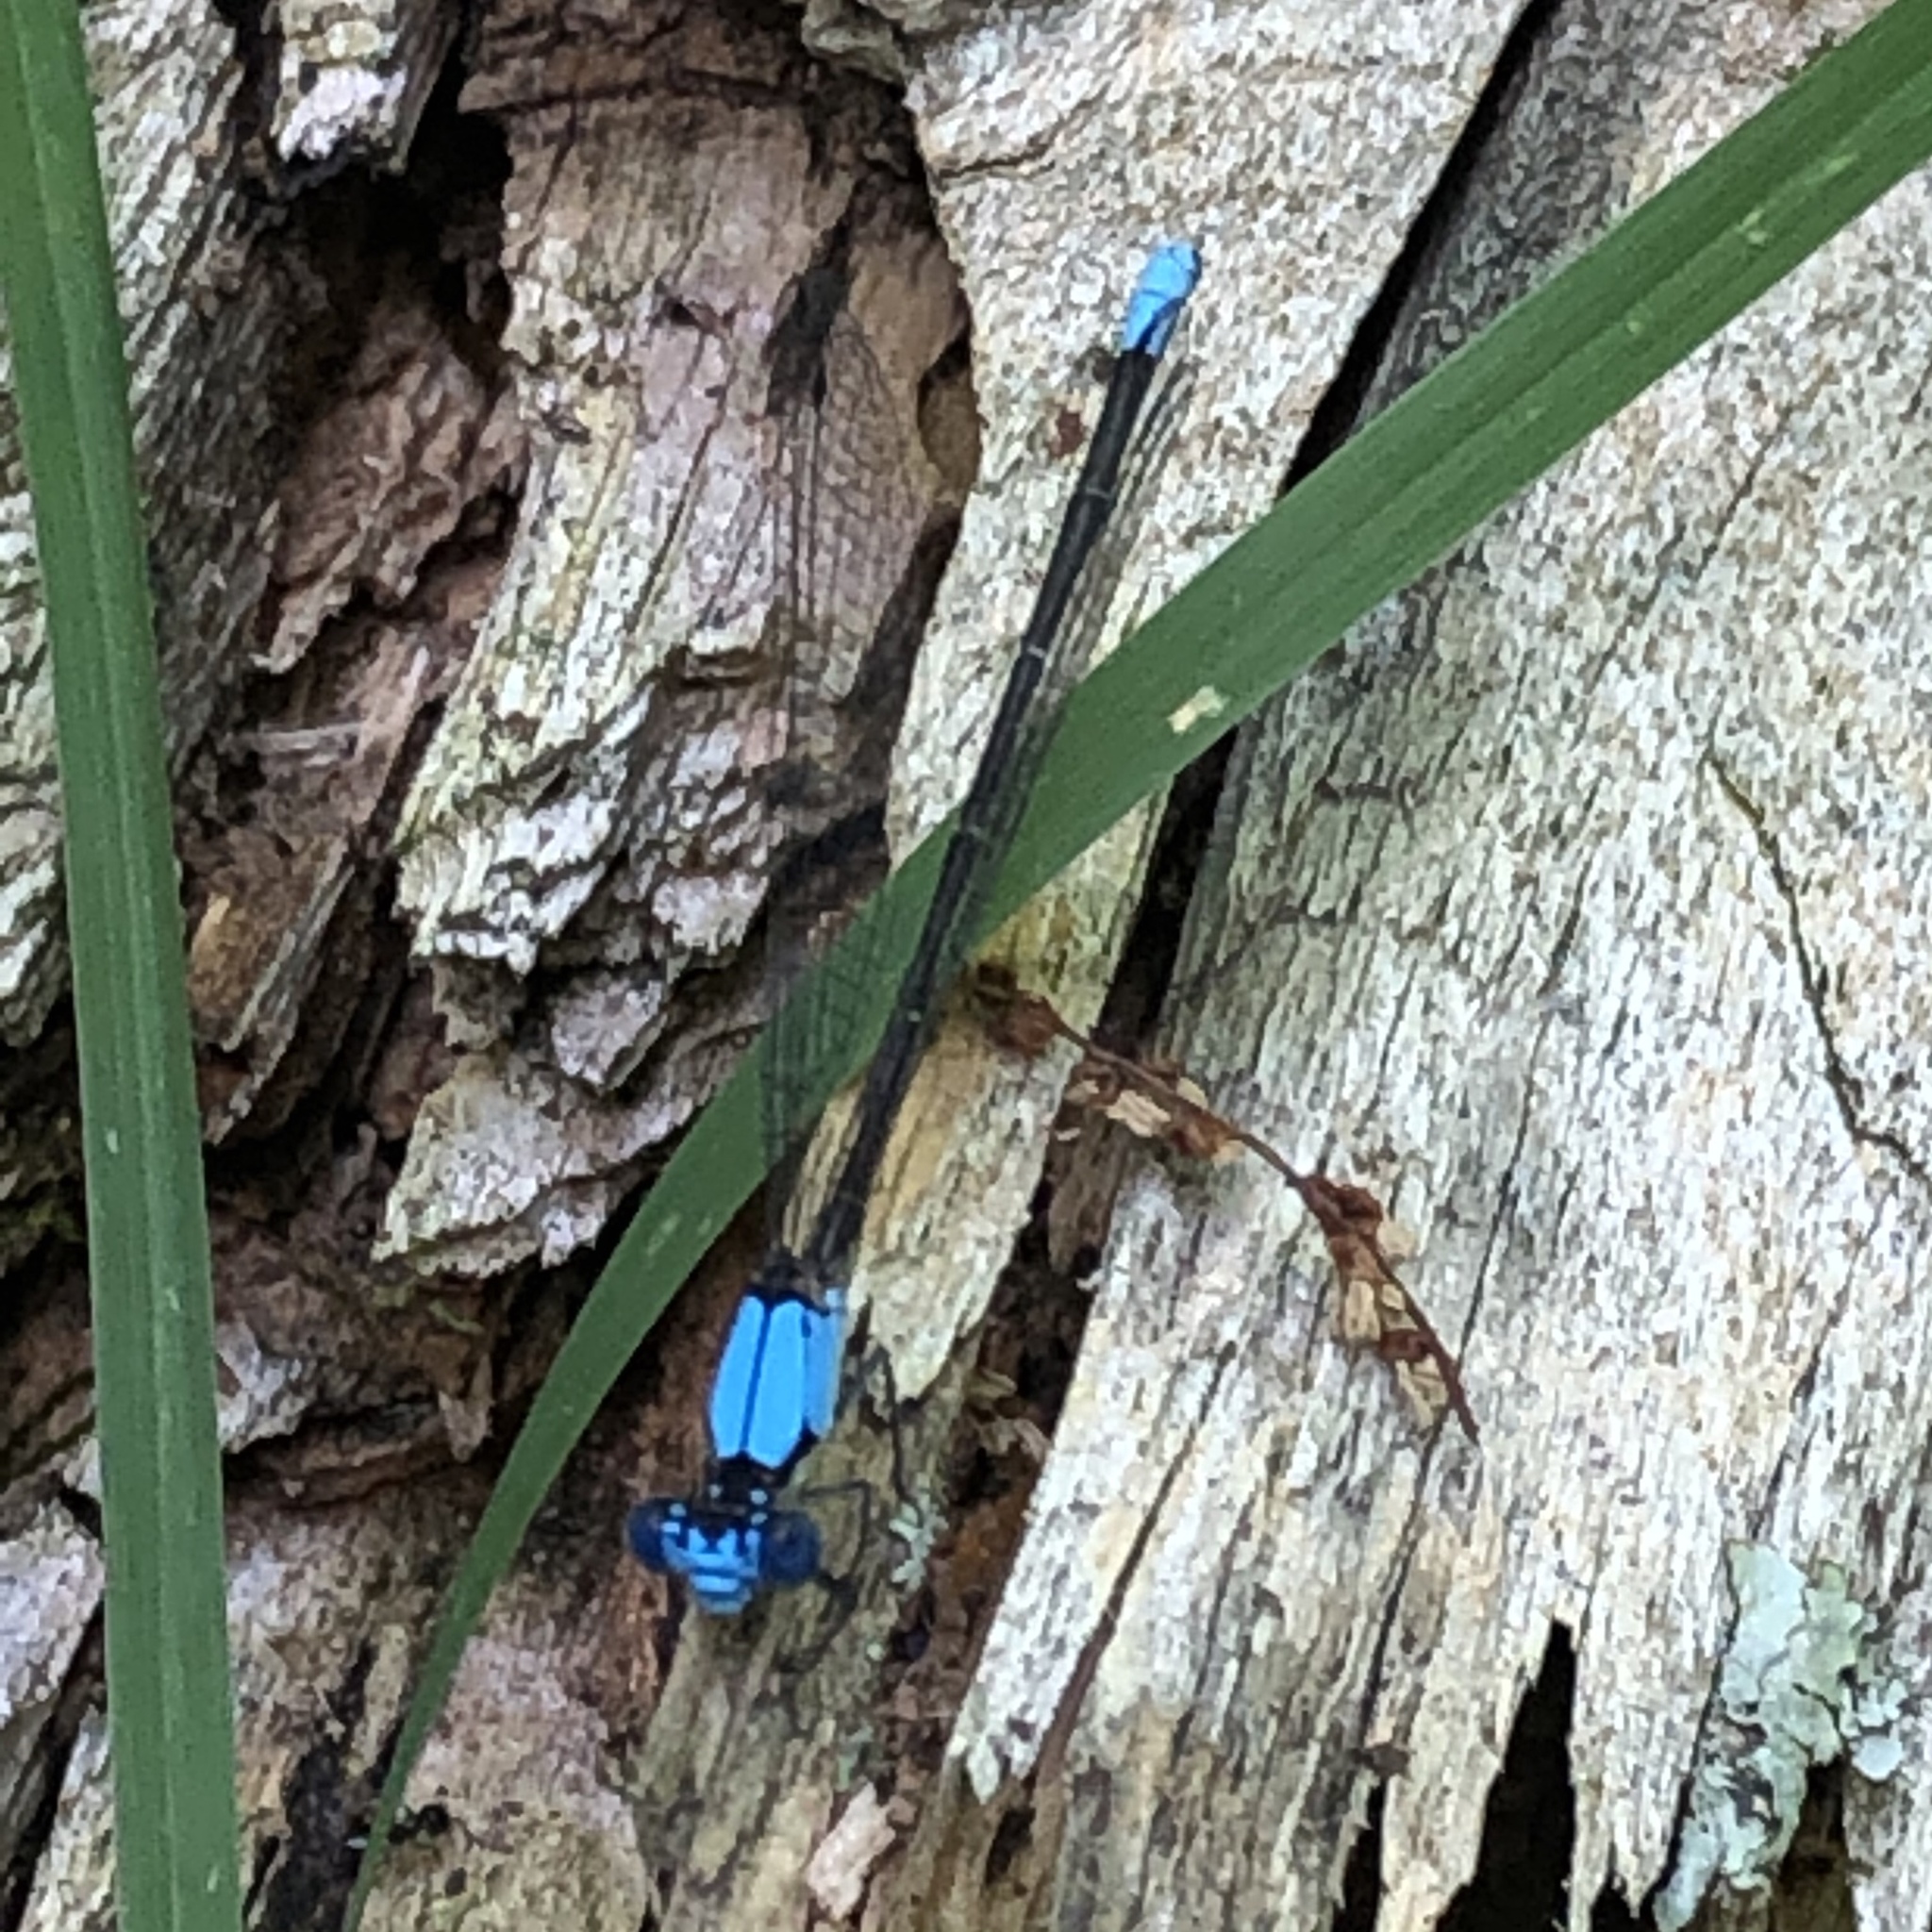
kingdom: Animalia
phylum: Arthropoda
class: Insecta
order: Odonata
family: Coenagrionidae
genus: Argia
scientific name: Argia apicalis
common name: Blue-fronted dancer
